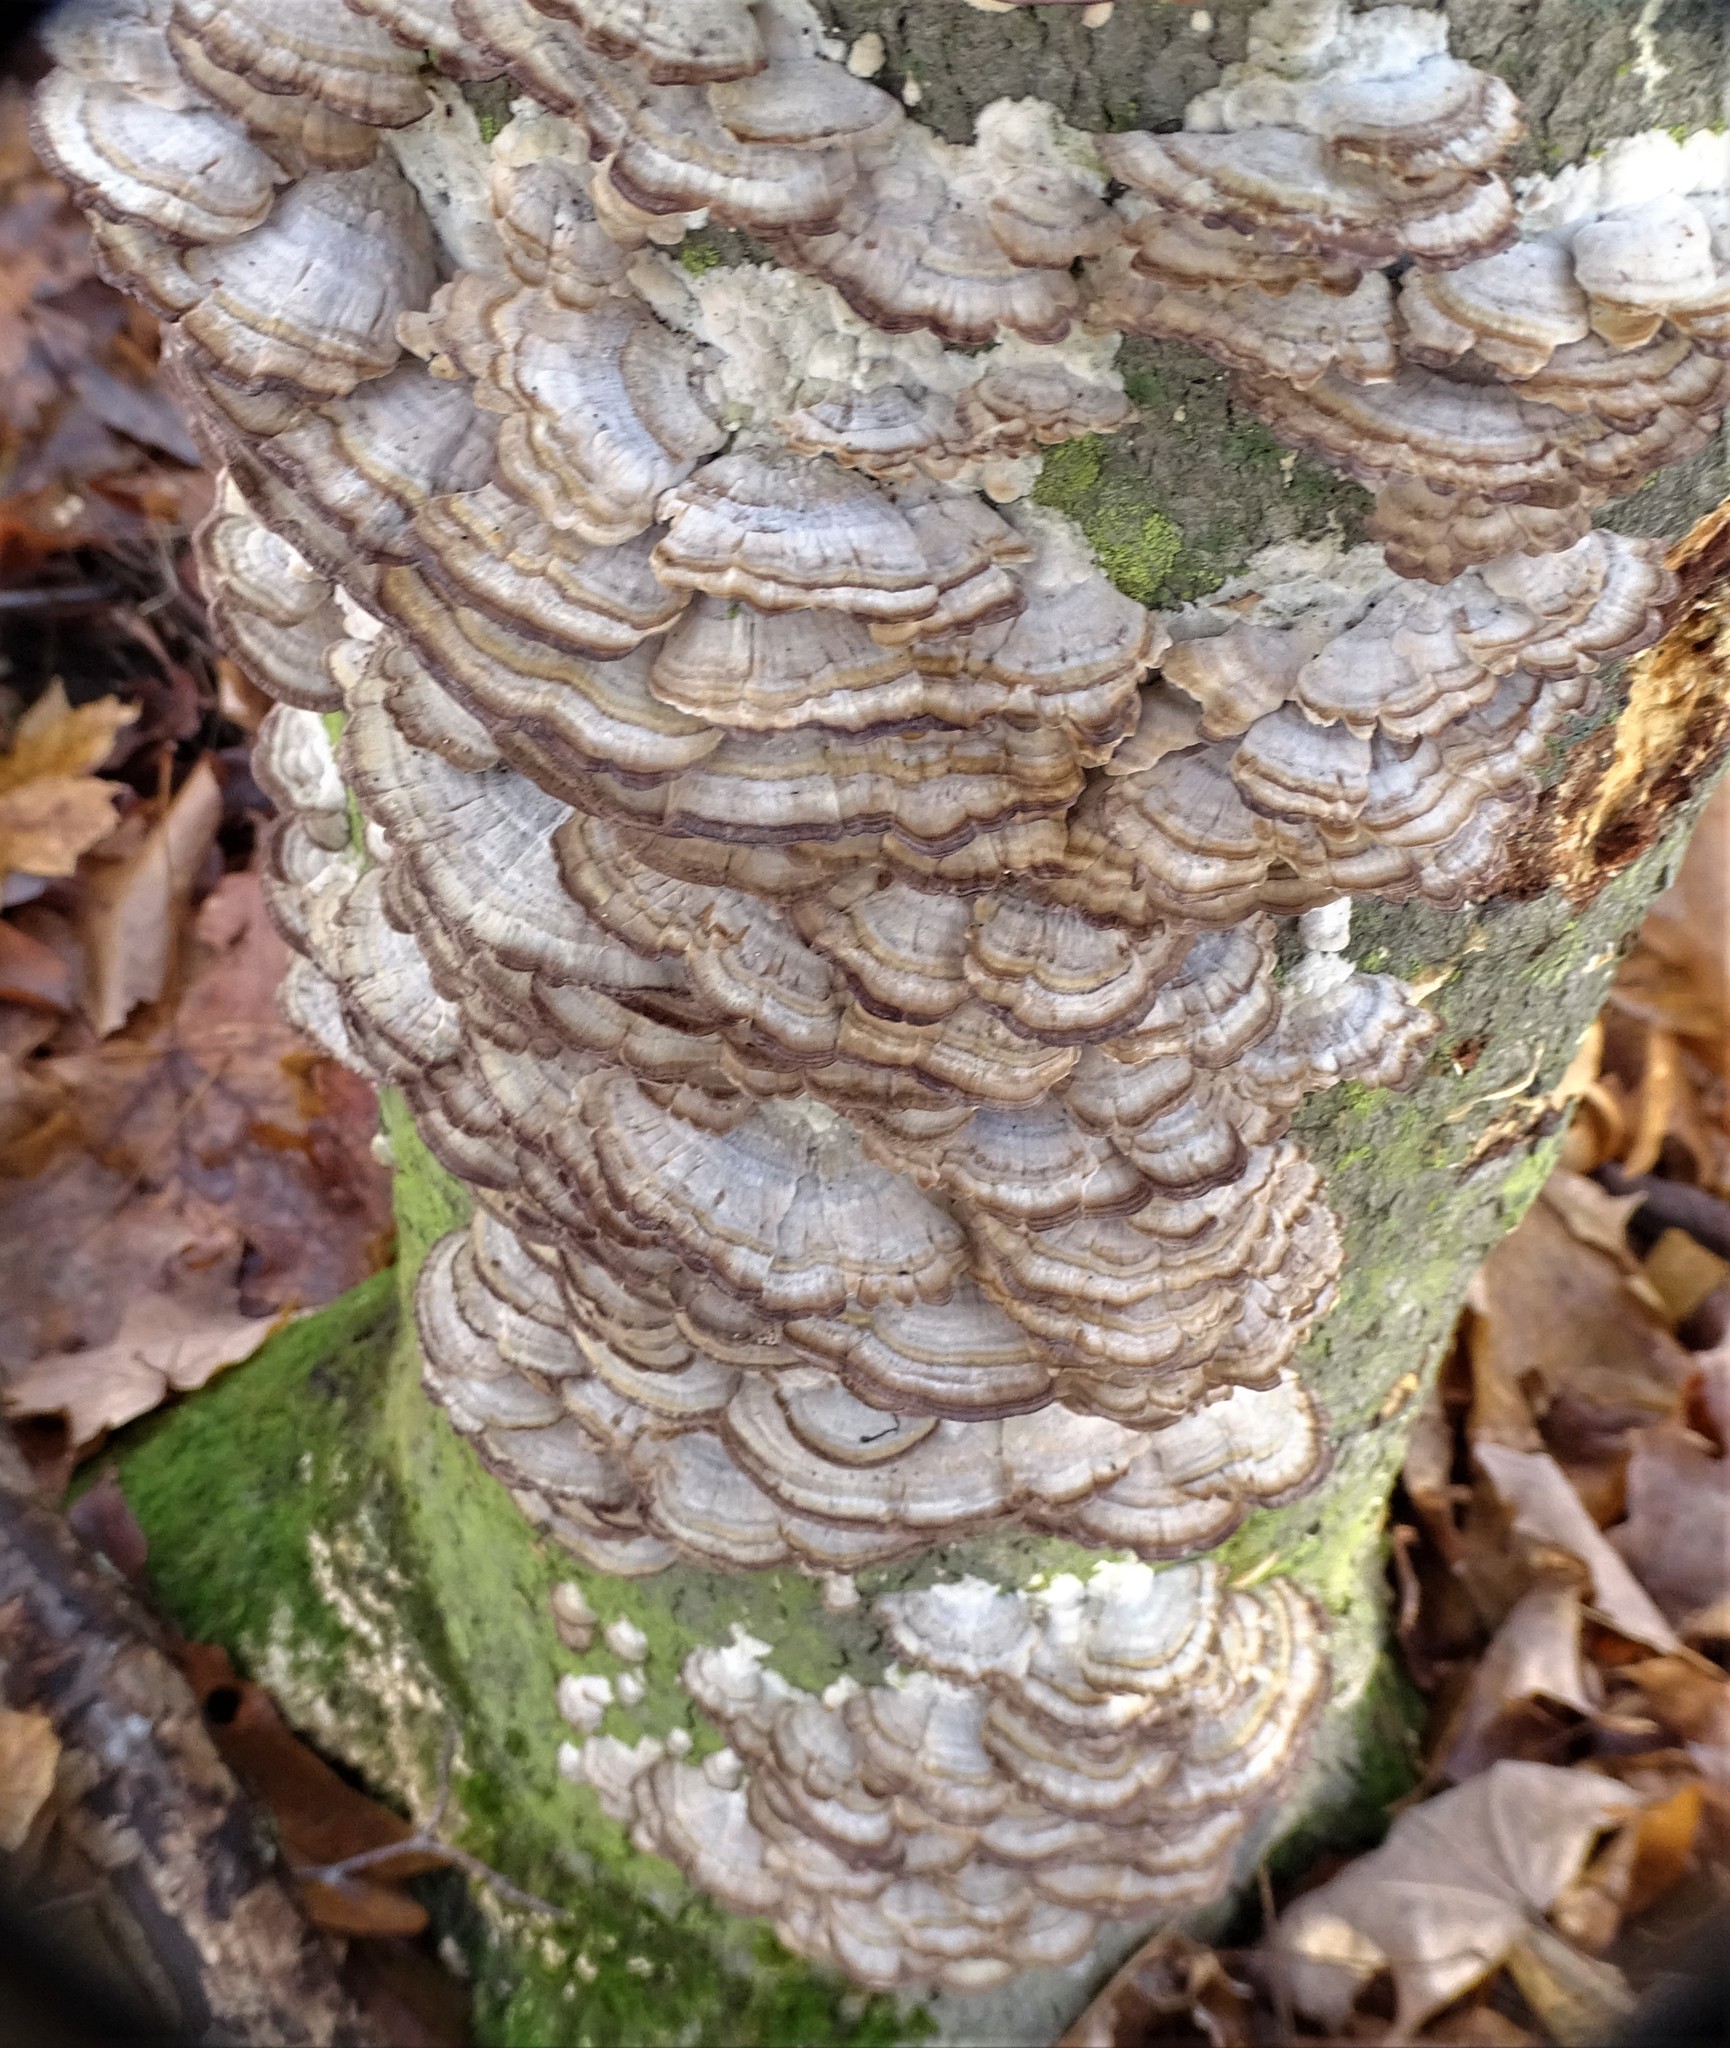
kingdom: Fungi
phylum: Basidiomycota
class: Agaricomycetes
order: Hymenochaetales
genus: Trichaptum
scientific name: Trichaptum biforme
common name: Violet-toothed polypore
